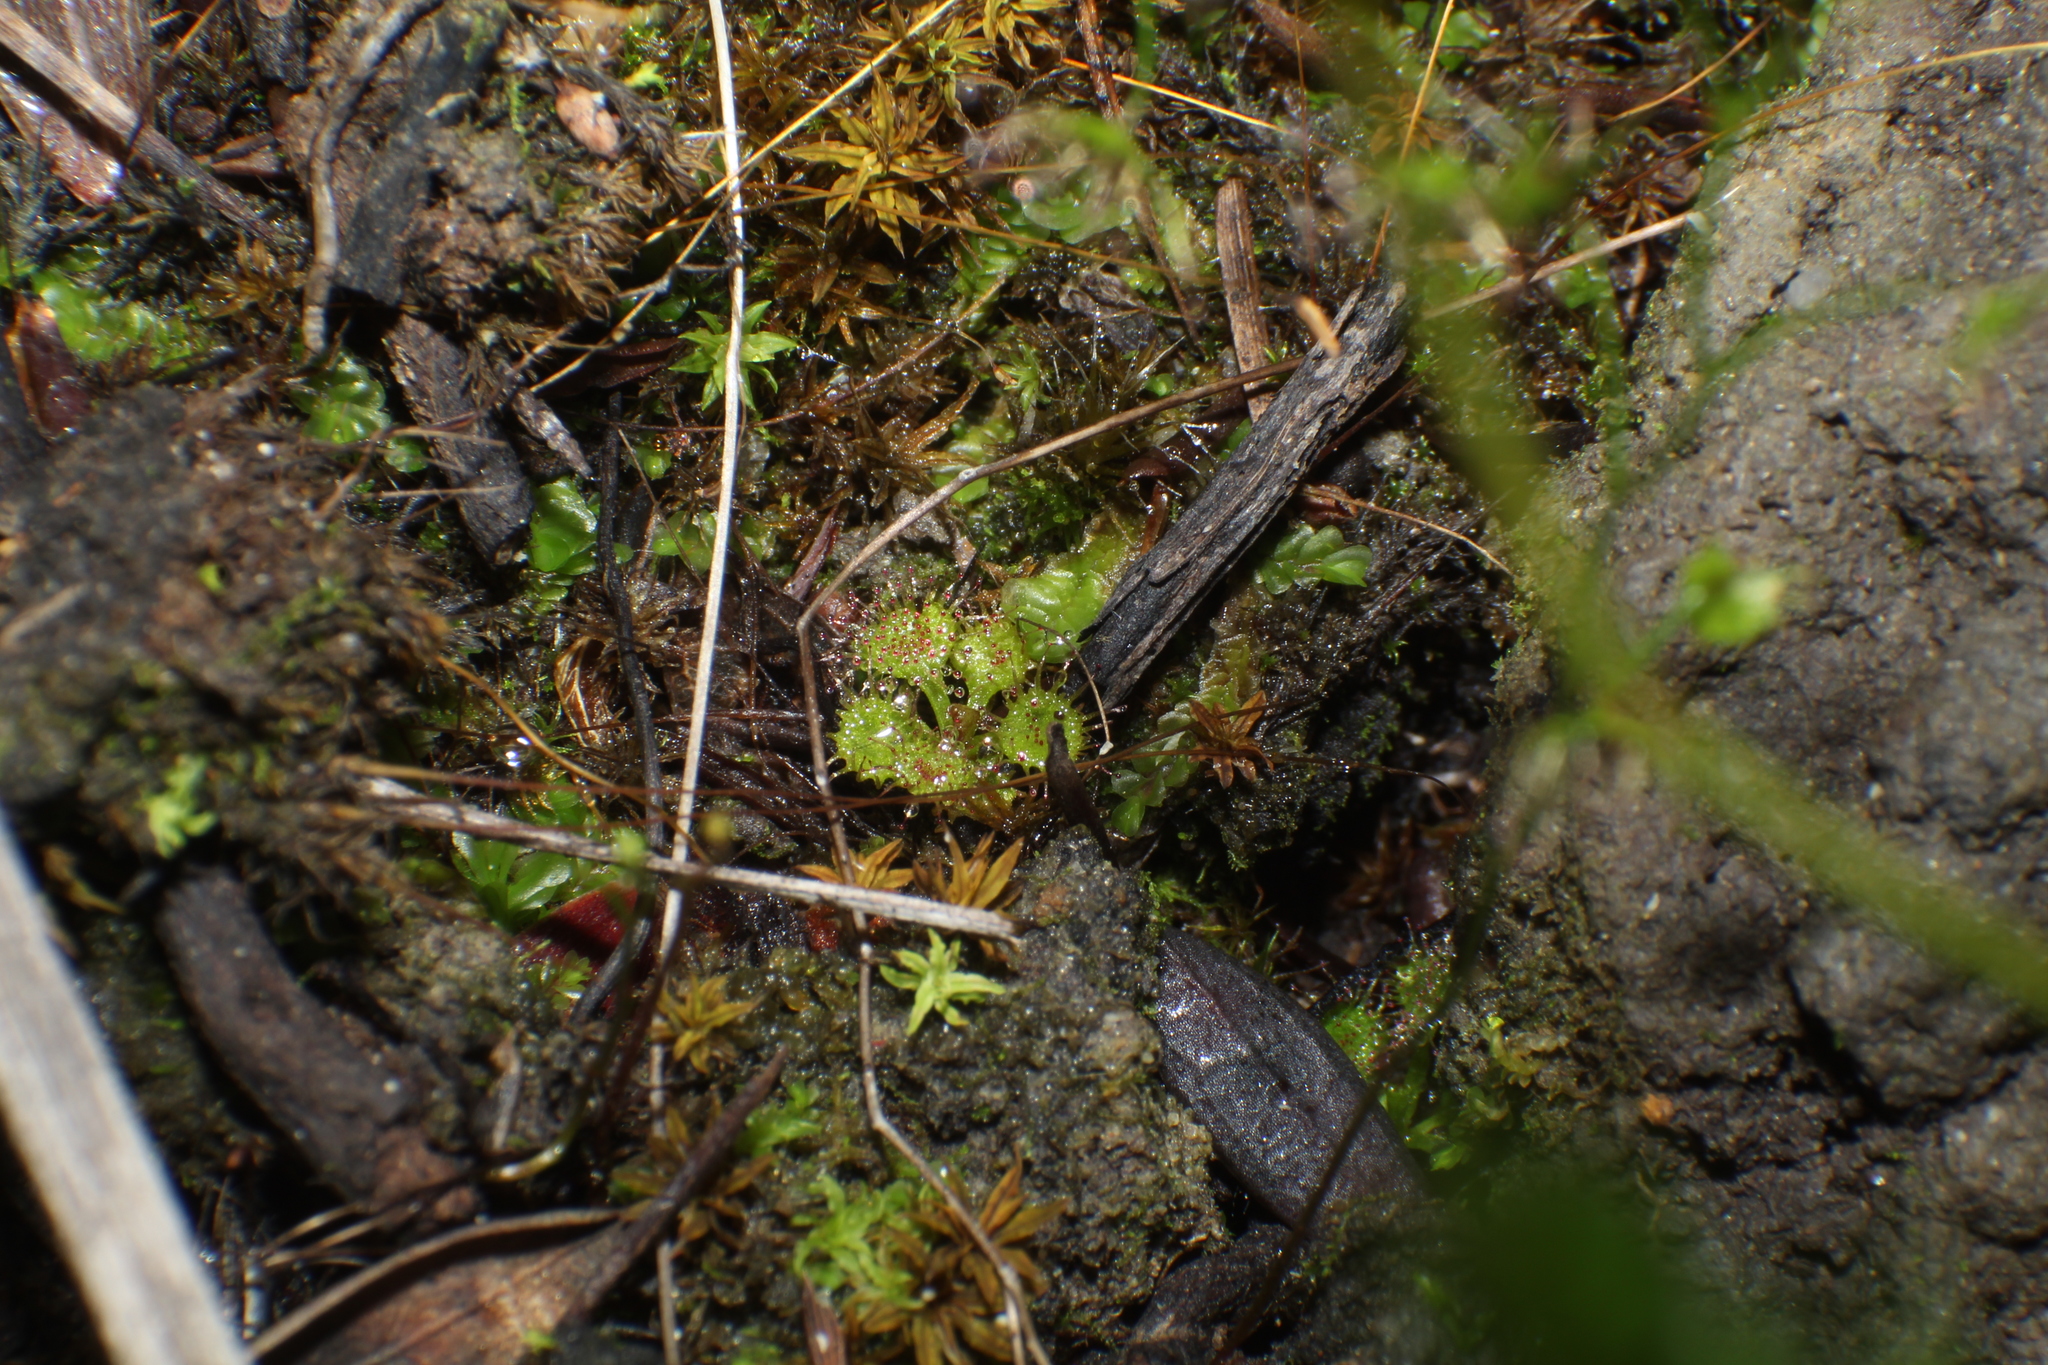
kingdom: Plantae
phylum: Tracheophyta
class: Magnoliopsida
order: Caryophyllales
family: Droseraceae
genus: Drosera
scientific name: Drosera modesta
